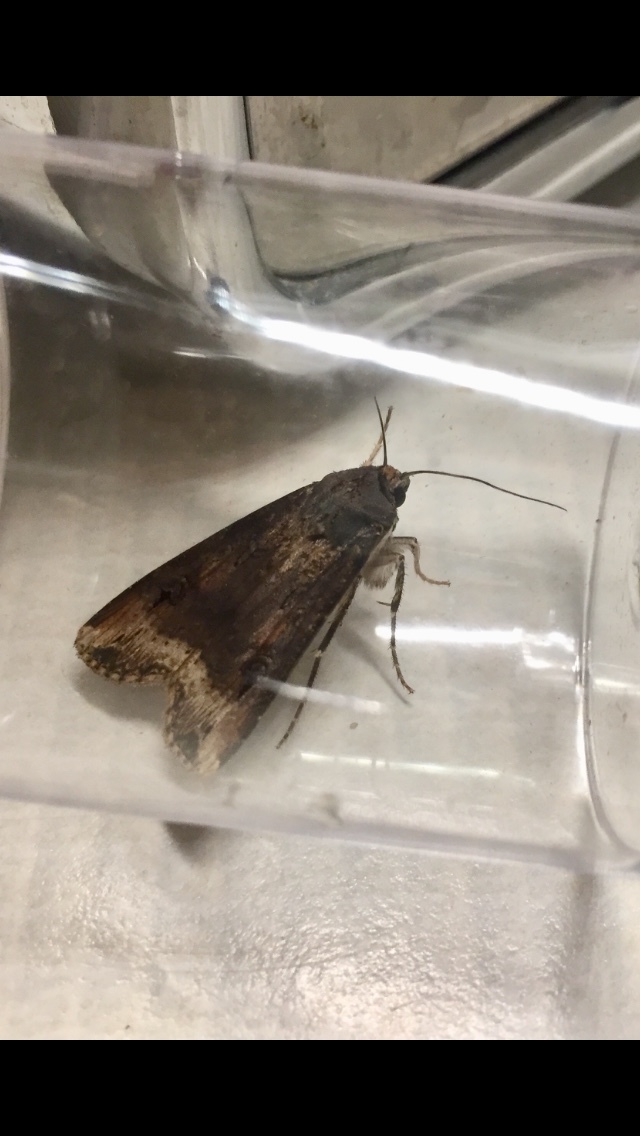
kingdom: Animalia
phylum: Arthropoda
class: Insecta
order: Lepidoptera
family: Noctuidae
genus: Agrotis
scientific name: Agrotis ipsilon
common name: Dark sword-grass
